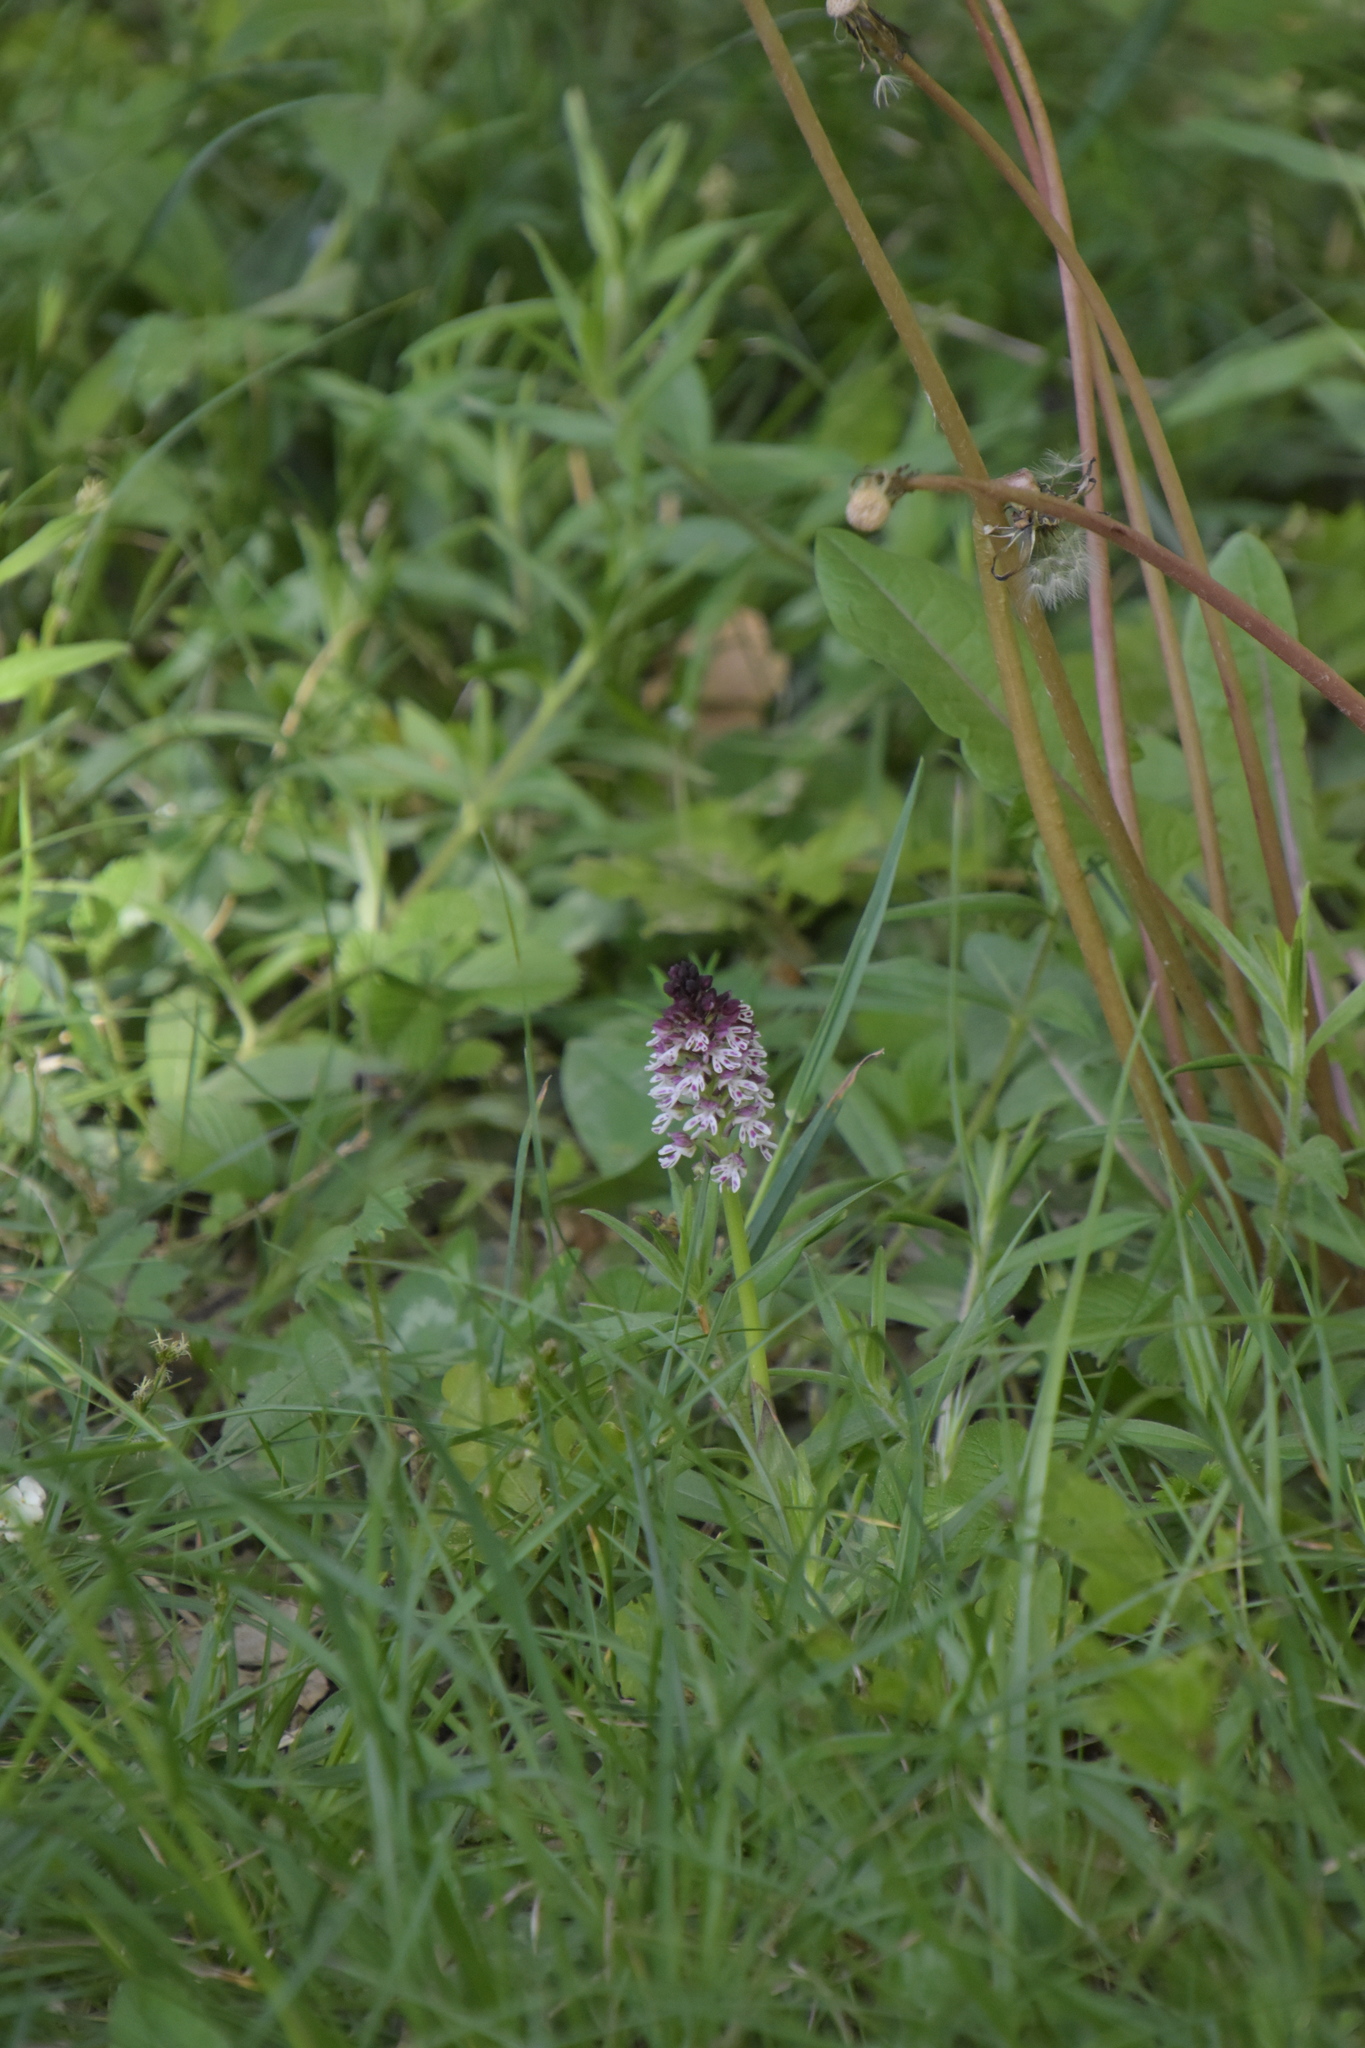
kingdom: Plantae
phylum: Tracheophyta
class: Liliopsida
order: Asparagales
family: Orchidaceae
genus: Neotinea
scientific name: Neotinea ustulata
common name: Burnt orchid
